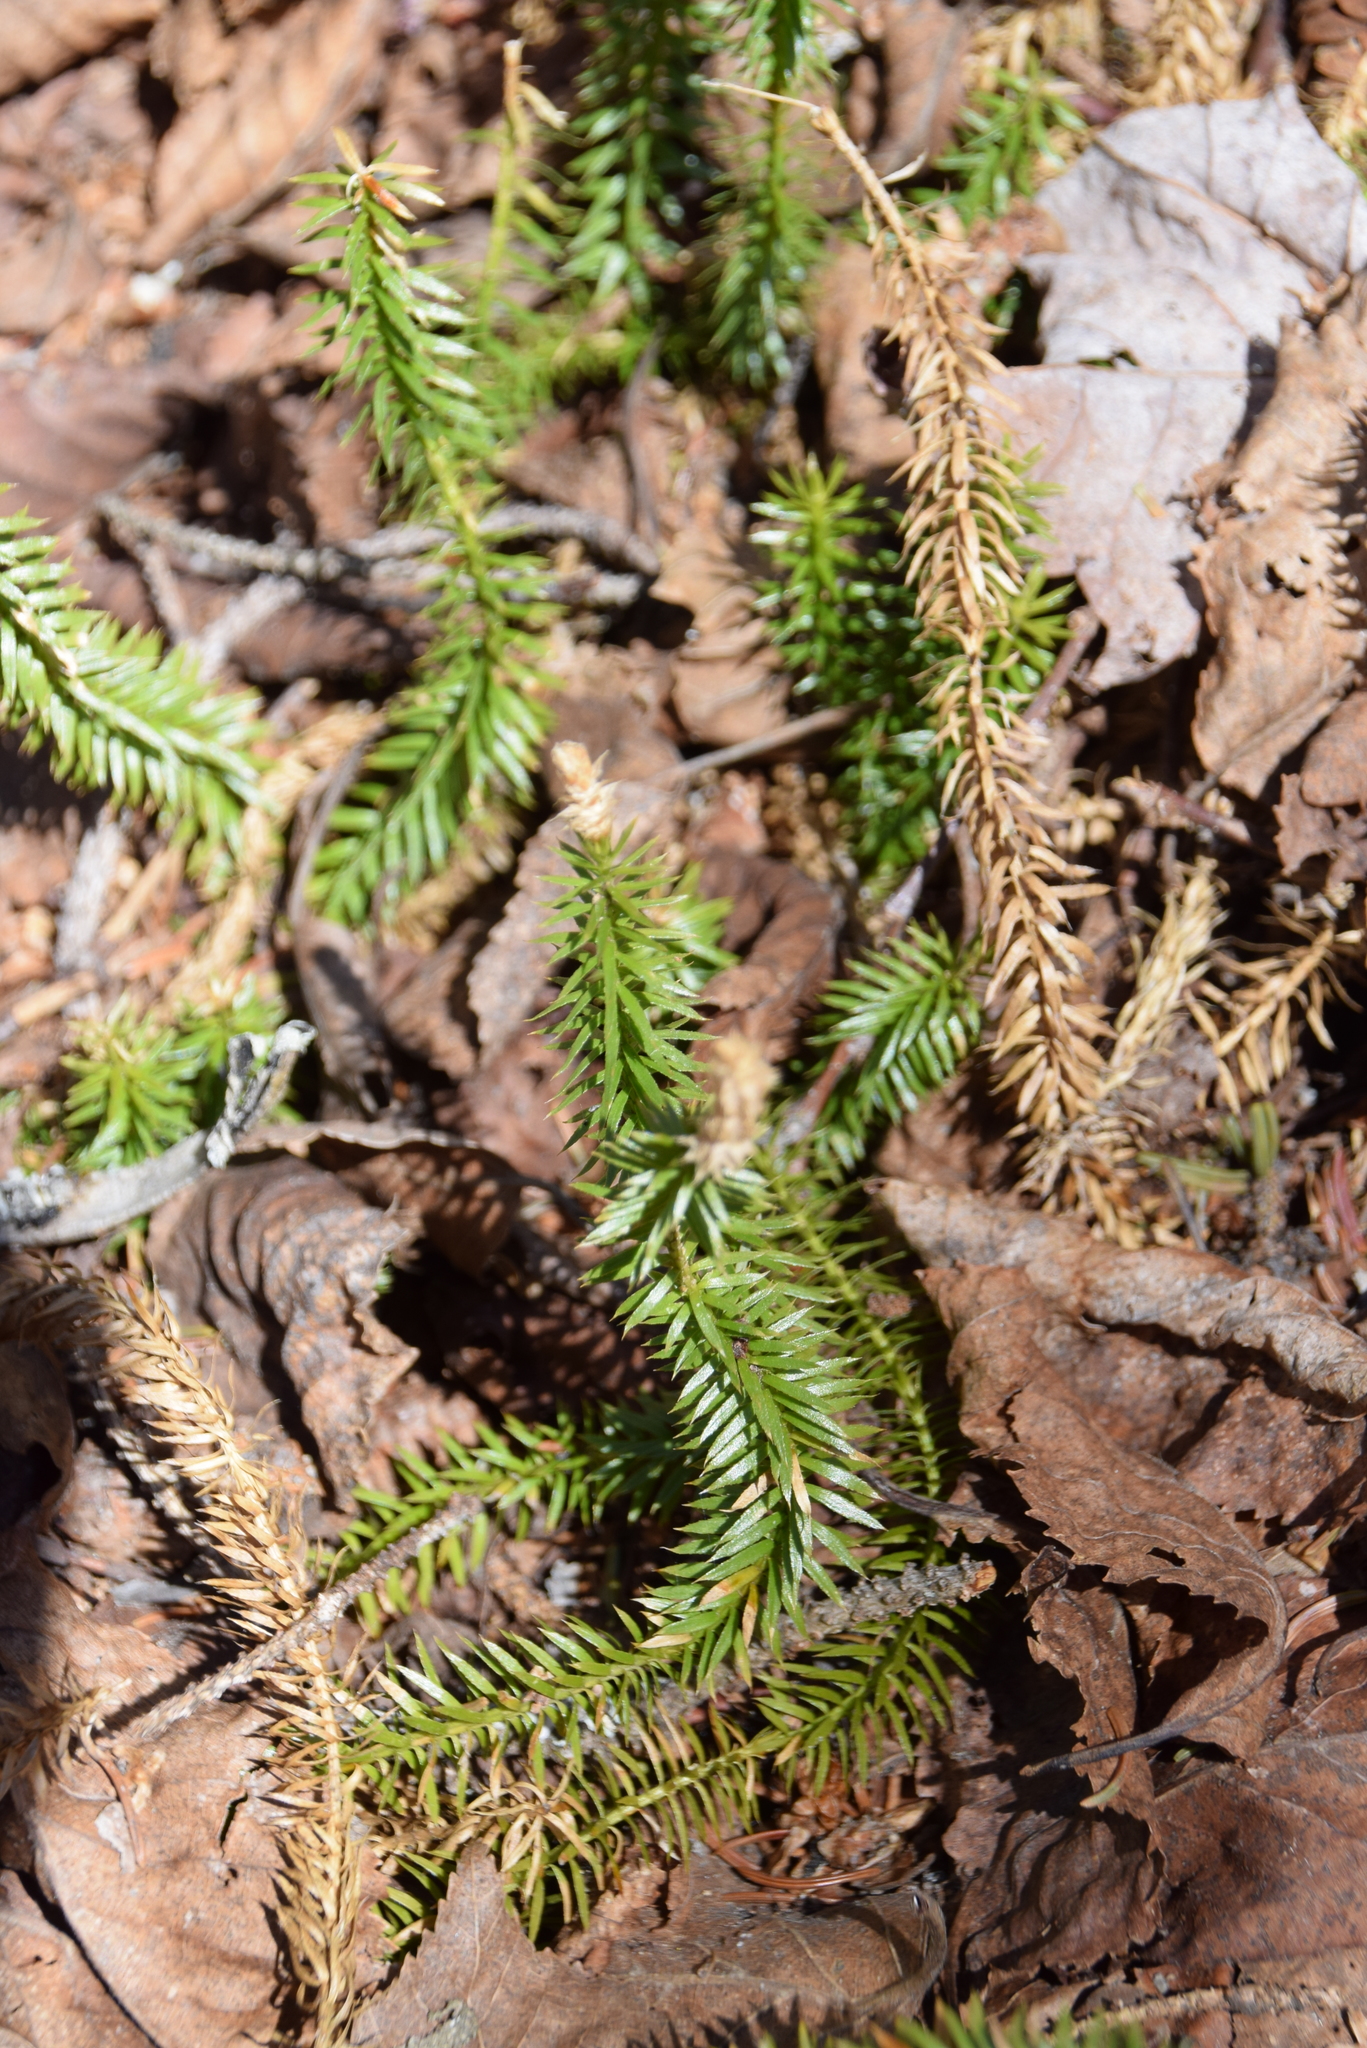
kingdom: Plantae
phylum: Tracheophyta
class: Lycopodiopsida
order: Lycopodiales
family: Lycopodiaceae
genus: Spinulum
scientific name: Spinulum annotinum
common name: Interrupted club-moss
